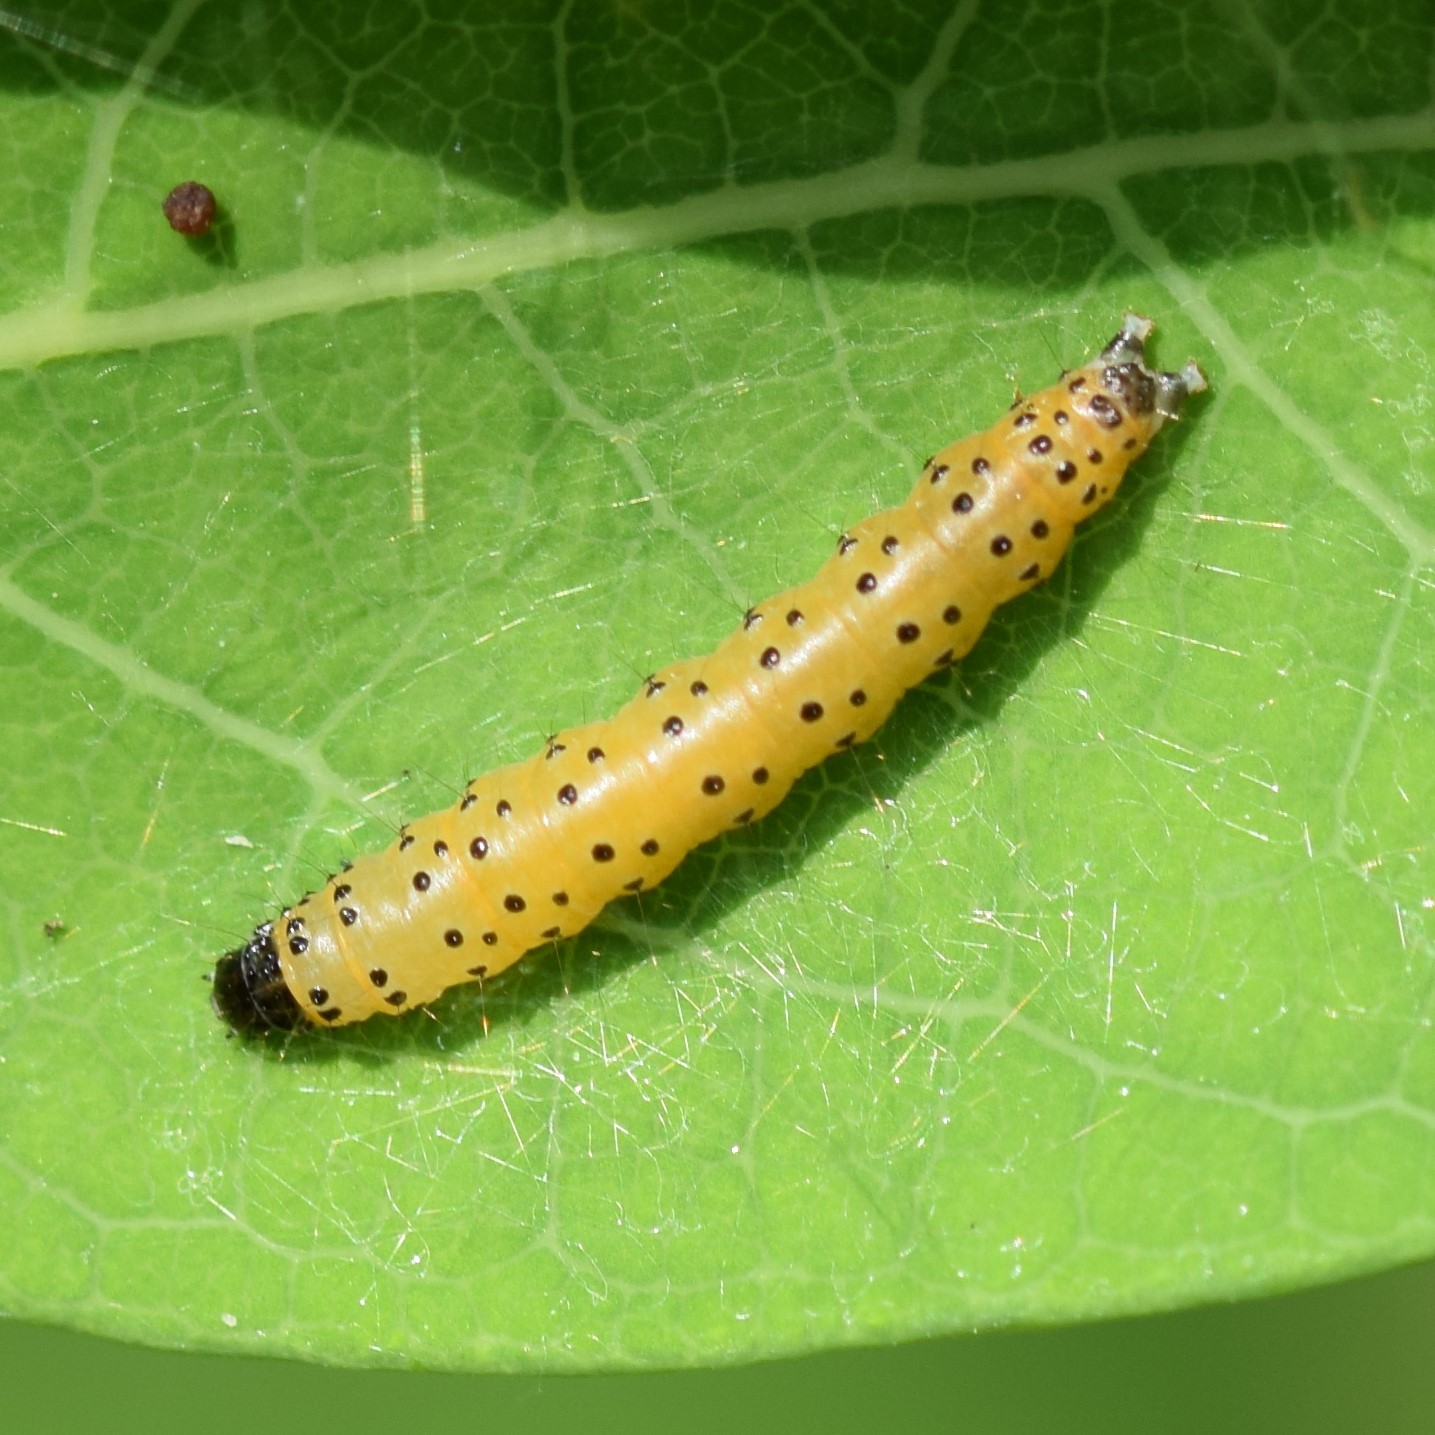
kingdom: Animalia
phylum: Arthropoda
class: Insecta
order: Lepidoptera
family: Crambidae
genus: Saucrobotys
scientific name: Saucrobotys futilalis
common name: Dogbane saucrobotys moth
